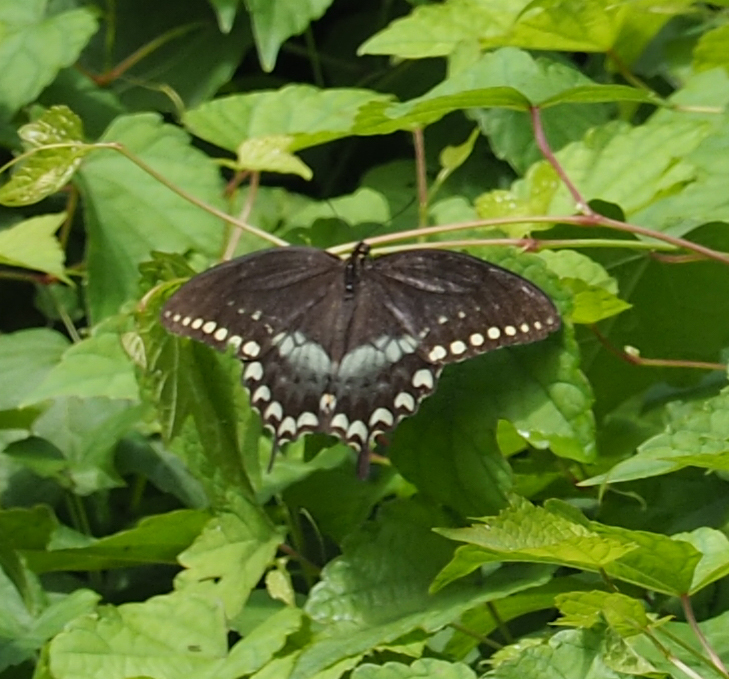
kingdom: Animalia
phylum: Arthropoda
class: Insecta
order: Lepidoptera
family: Papilionidae
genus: Papilio
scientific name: Papilio troilus
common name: Spicebush swallowtail
